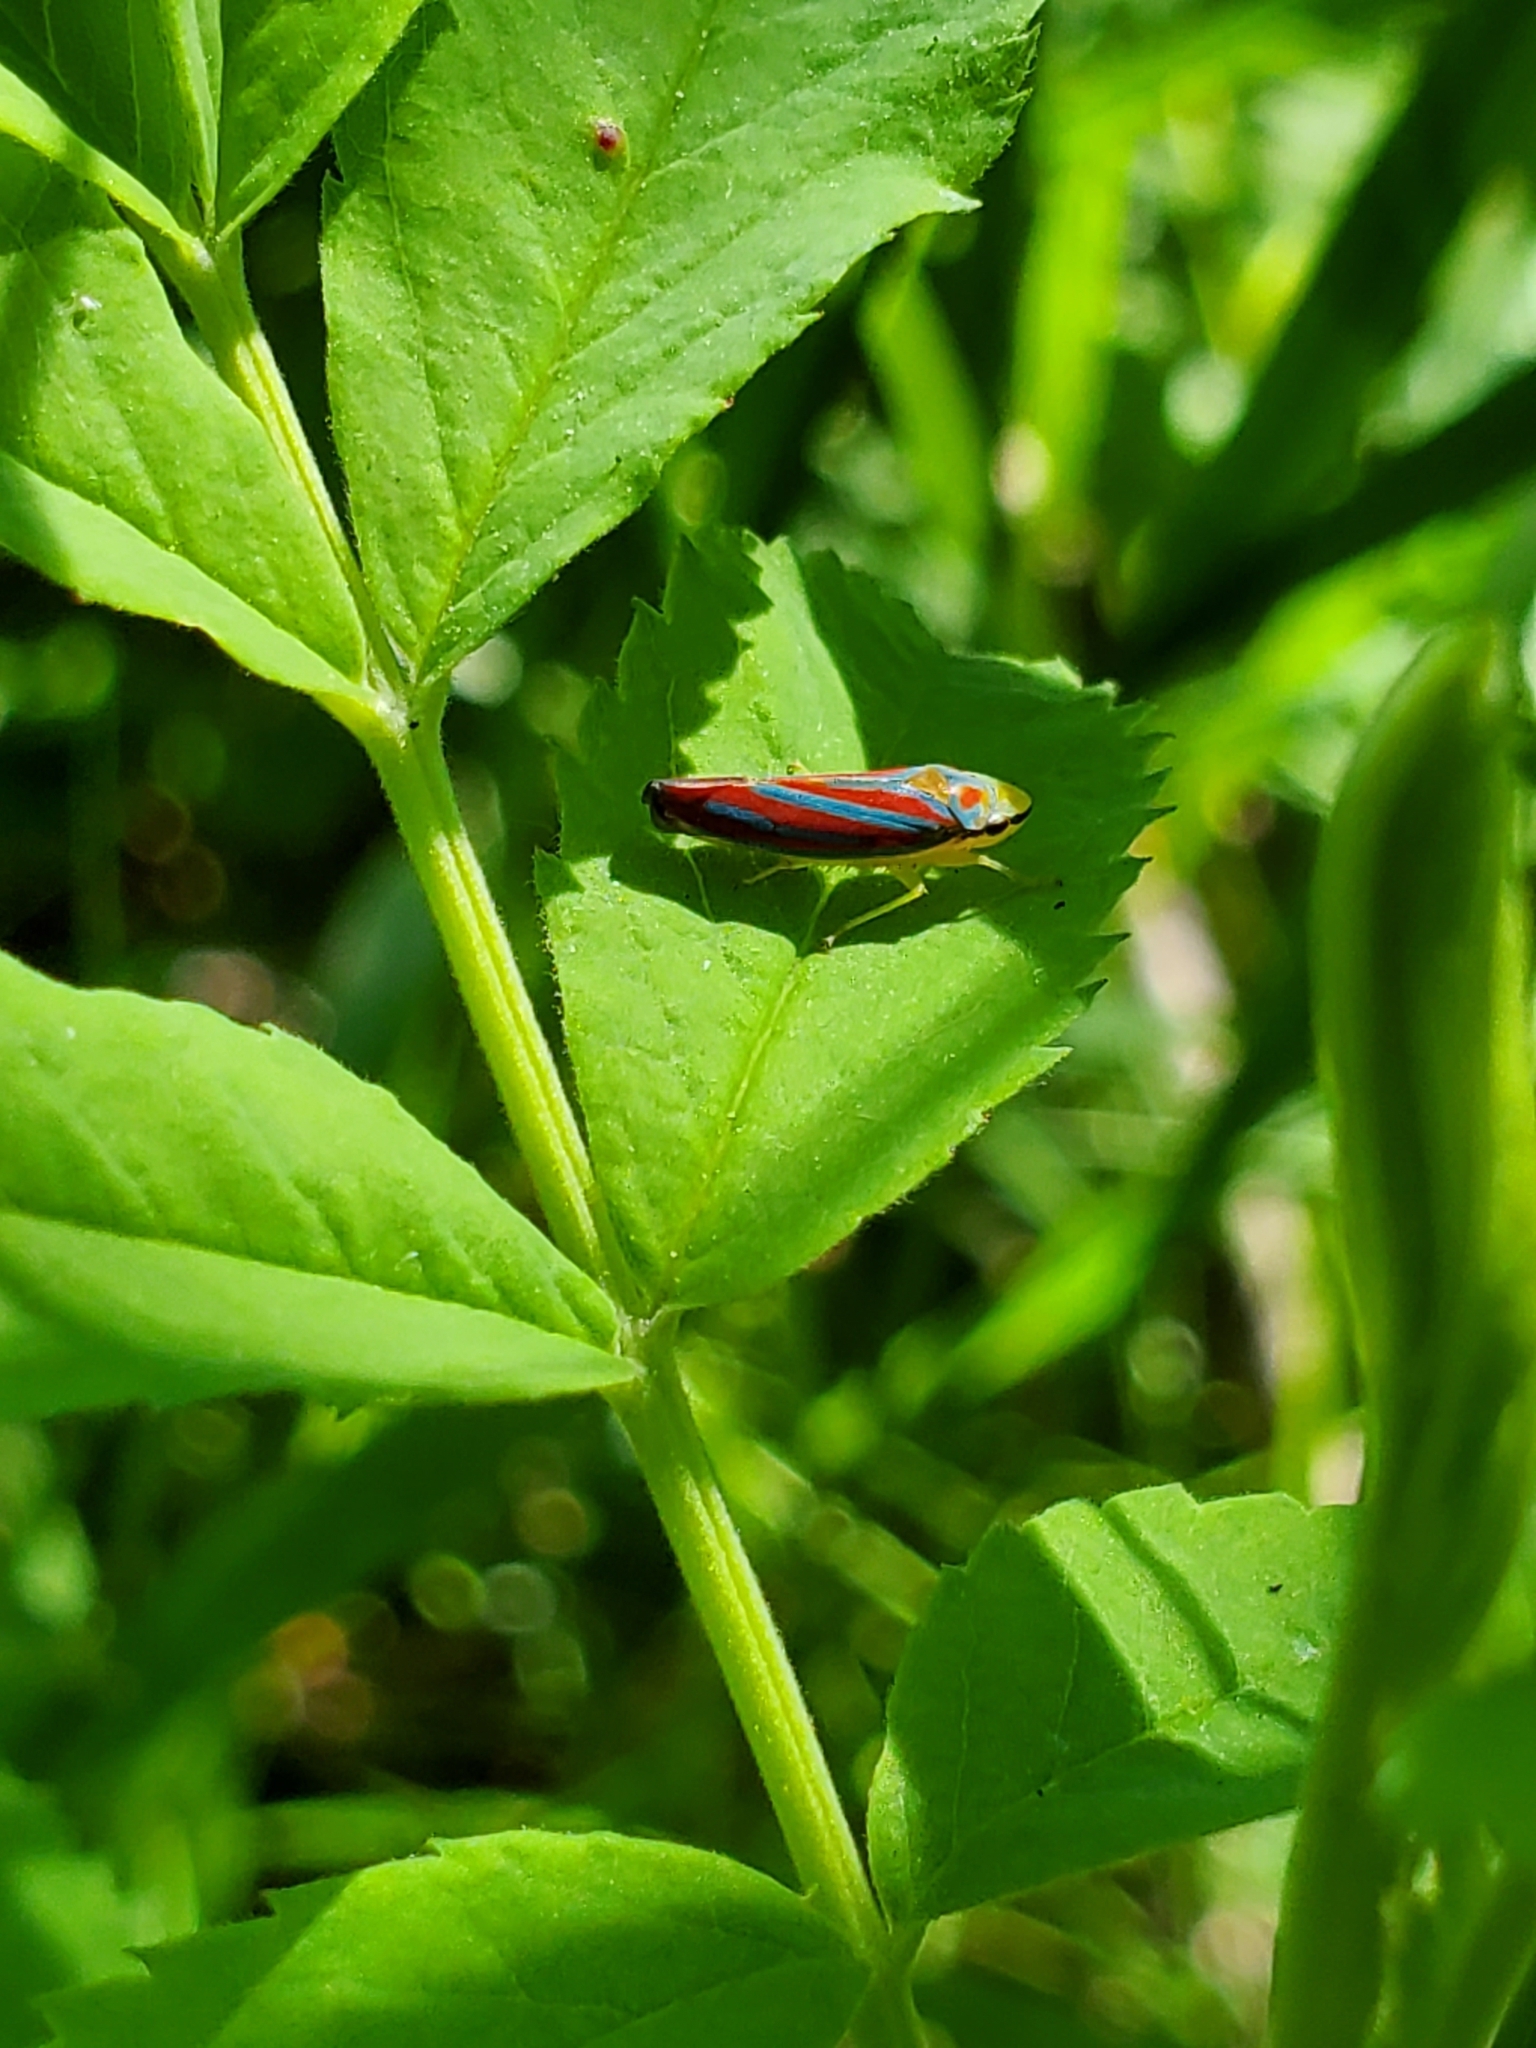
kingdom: Animalia
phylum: Arthropoda
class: Insecta
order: Hemiptera
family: Cicadellidae
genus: Graphocephala
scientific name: Graphocephala coccinea
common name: Candy-striped leafhopper
